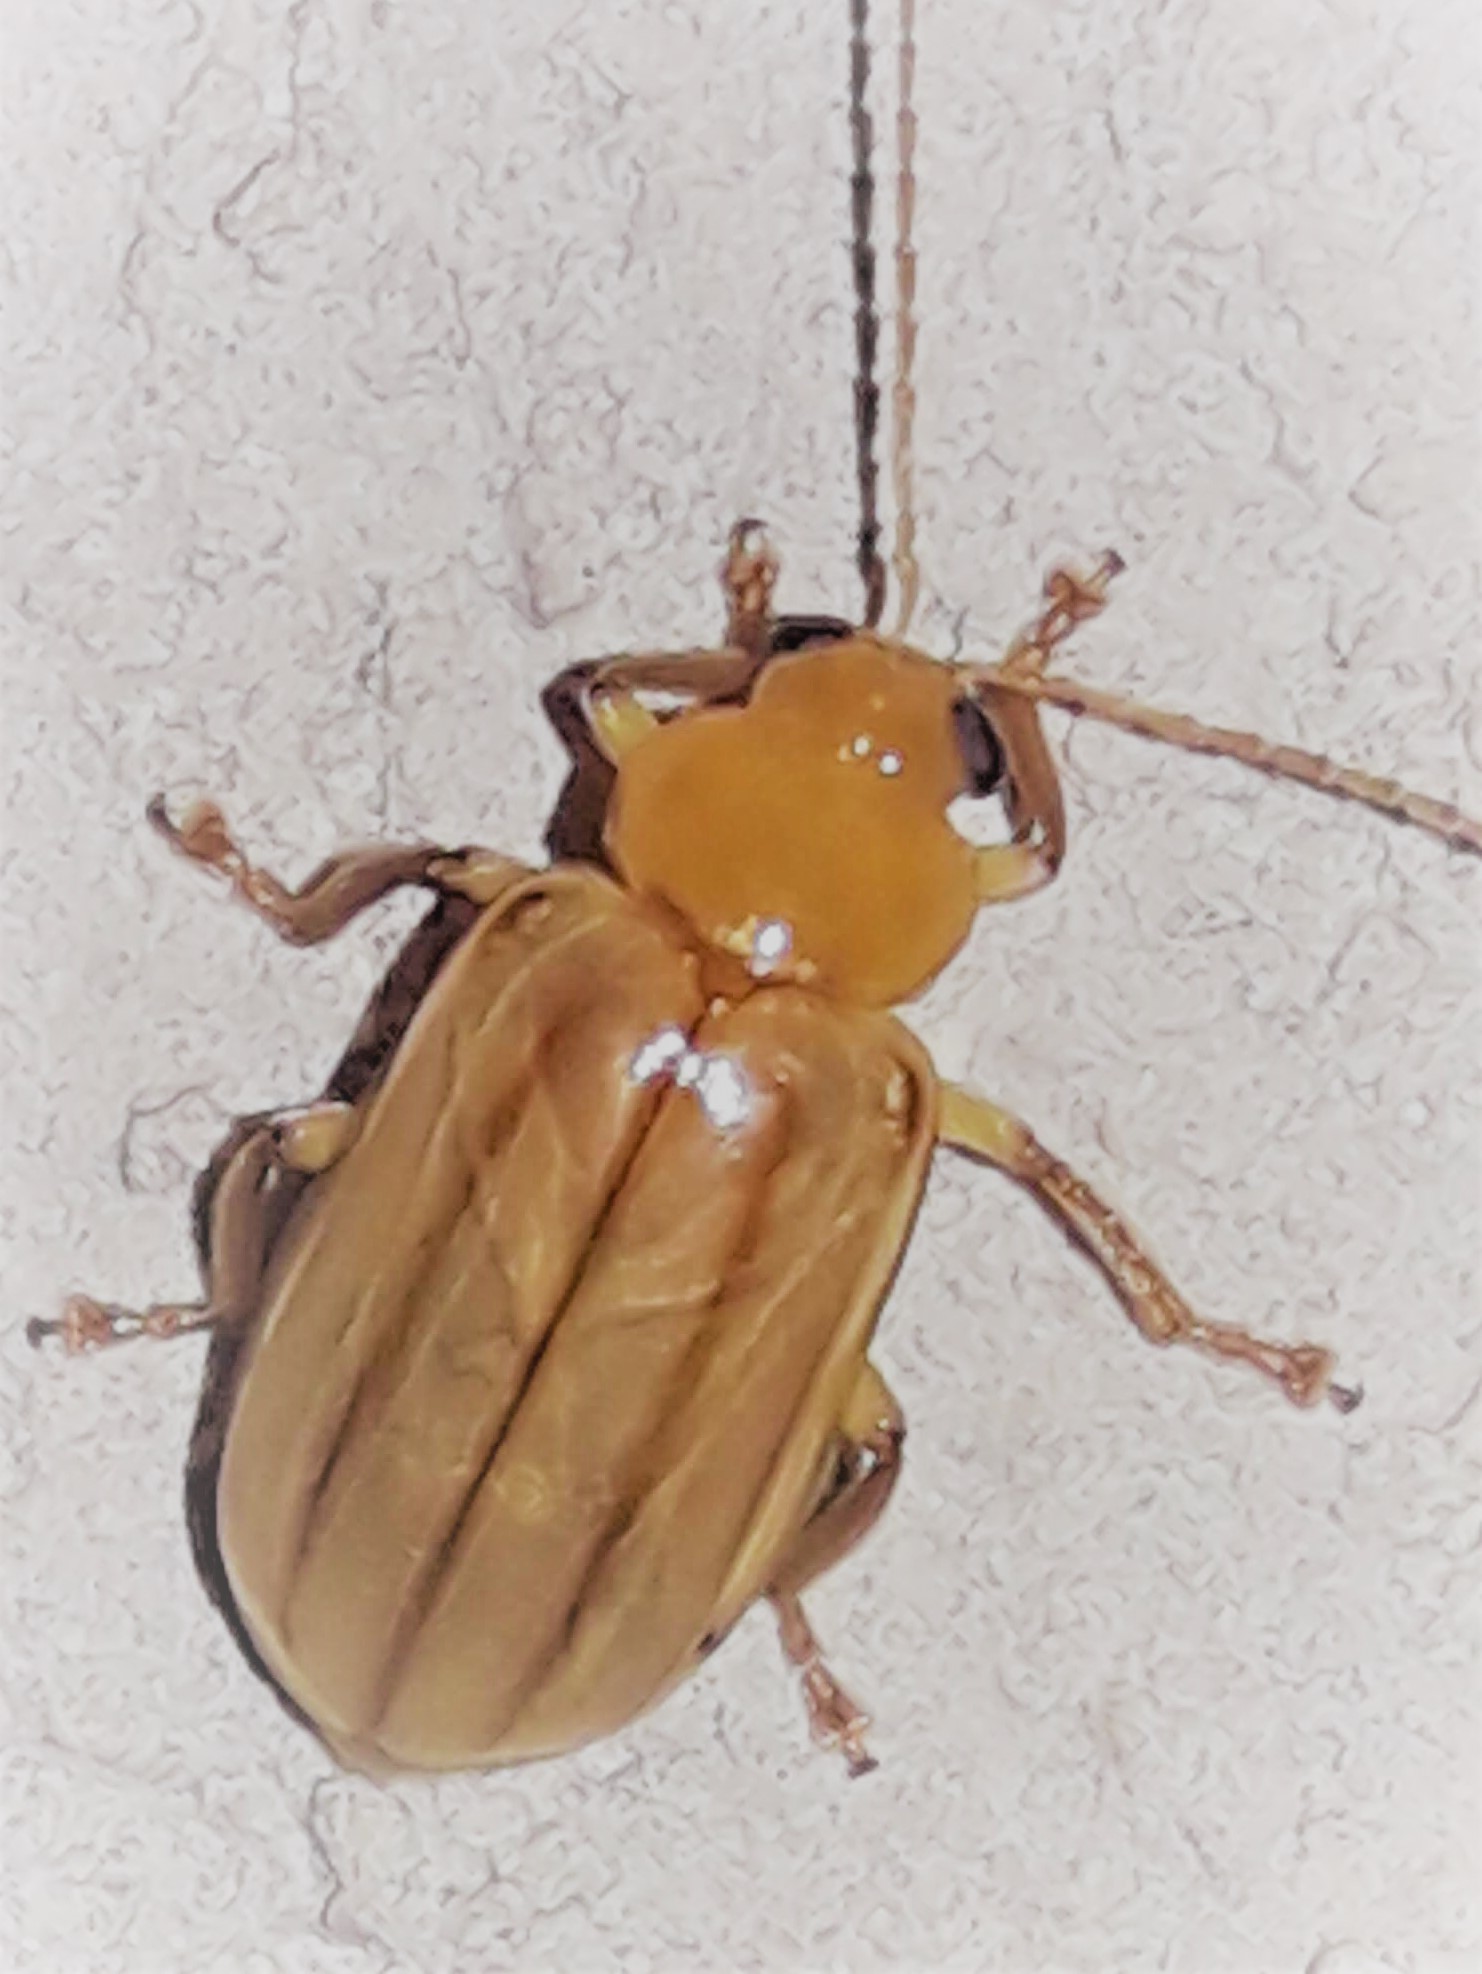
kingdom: Animalia
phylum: Arthropoda
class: Insecta
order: Coleoptera
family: Chrysomelidae
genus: Exora
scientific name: Exora encaustica
